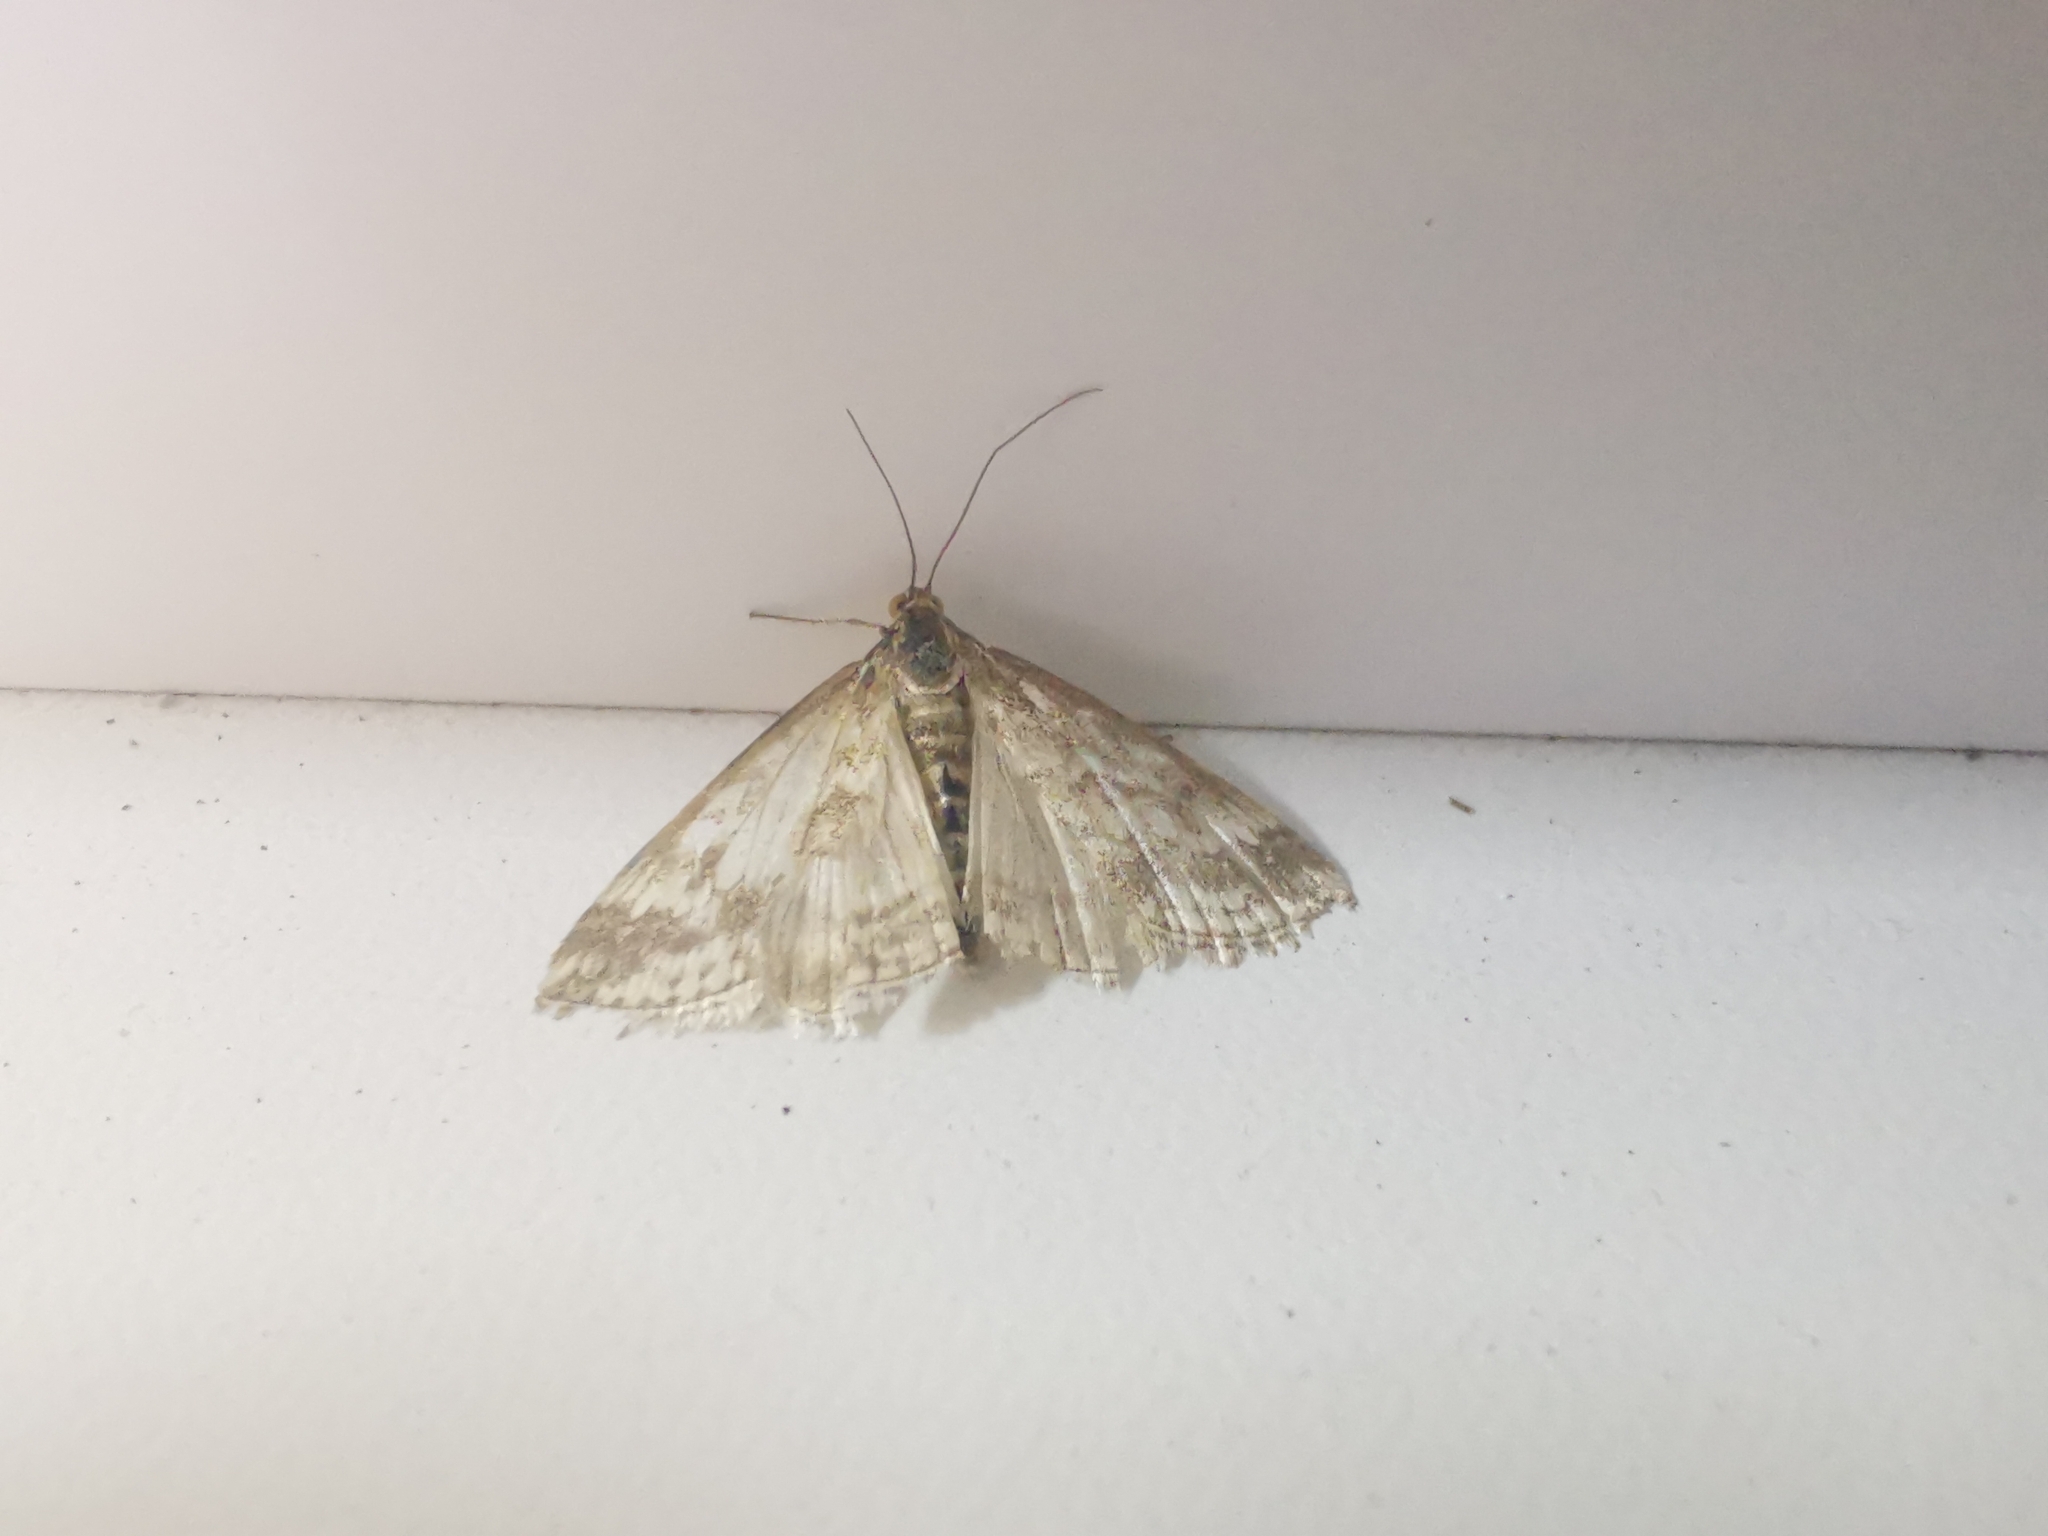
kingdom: Animalia
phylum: Arthropoda
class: Insecta
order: Lepidoptera
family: Crambidae
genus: Evergestis
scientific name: Evergestis frumentalis
